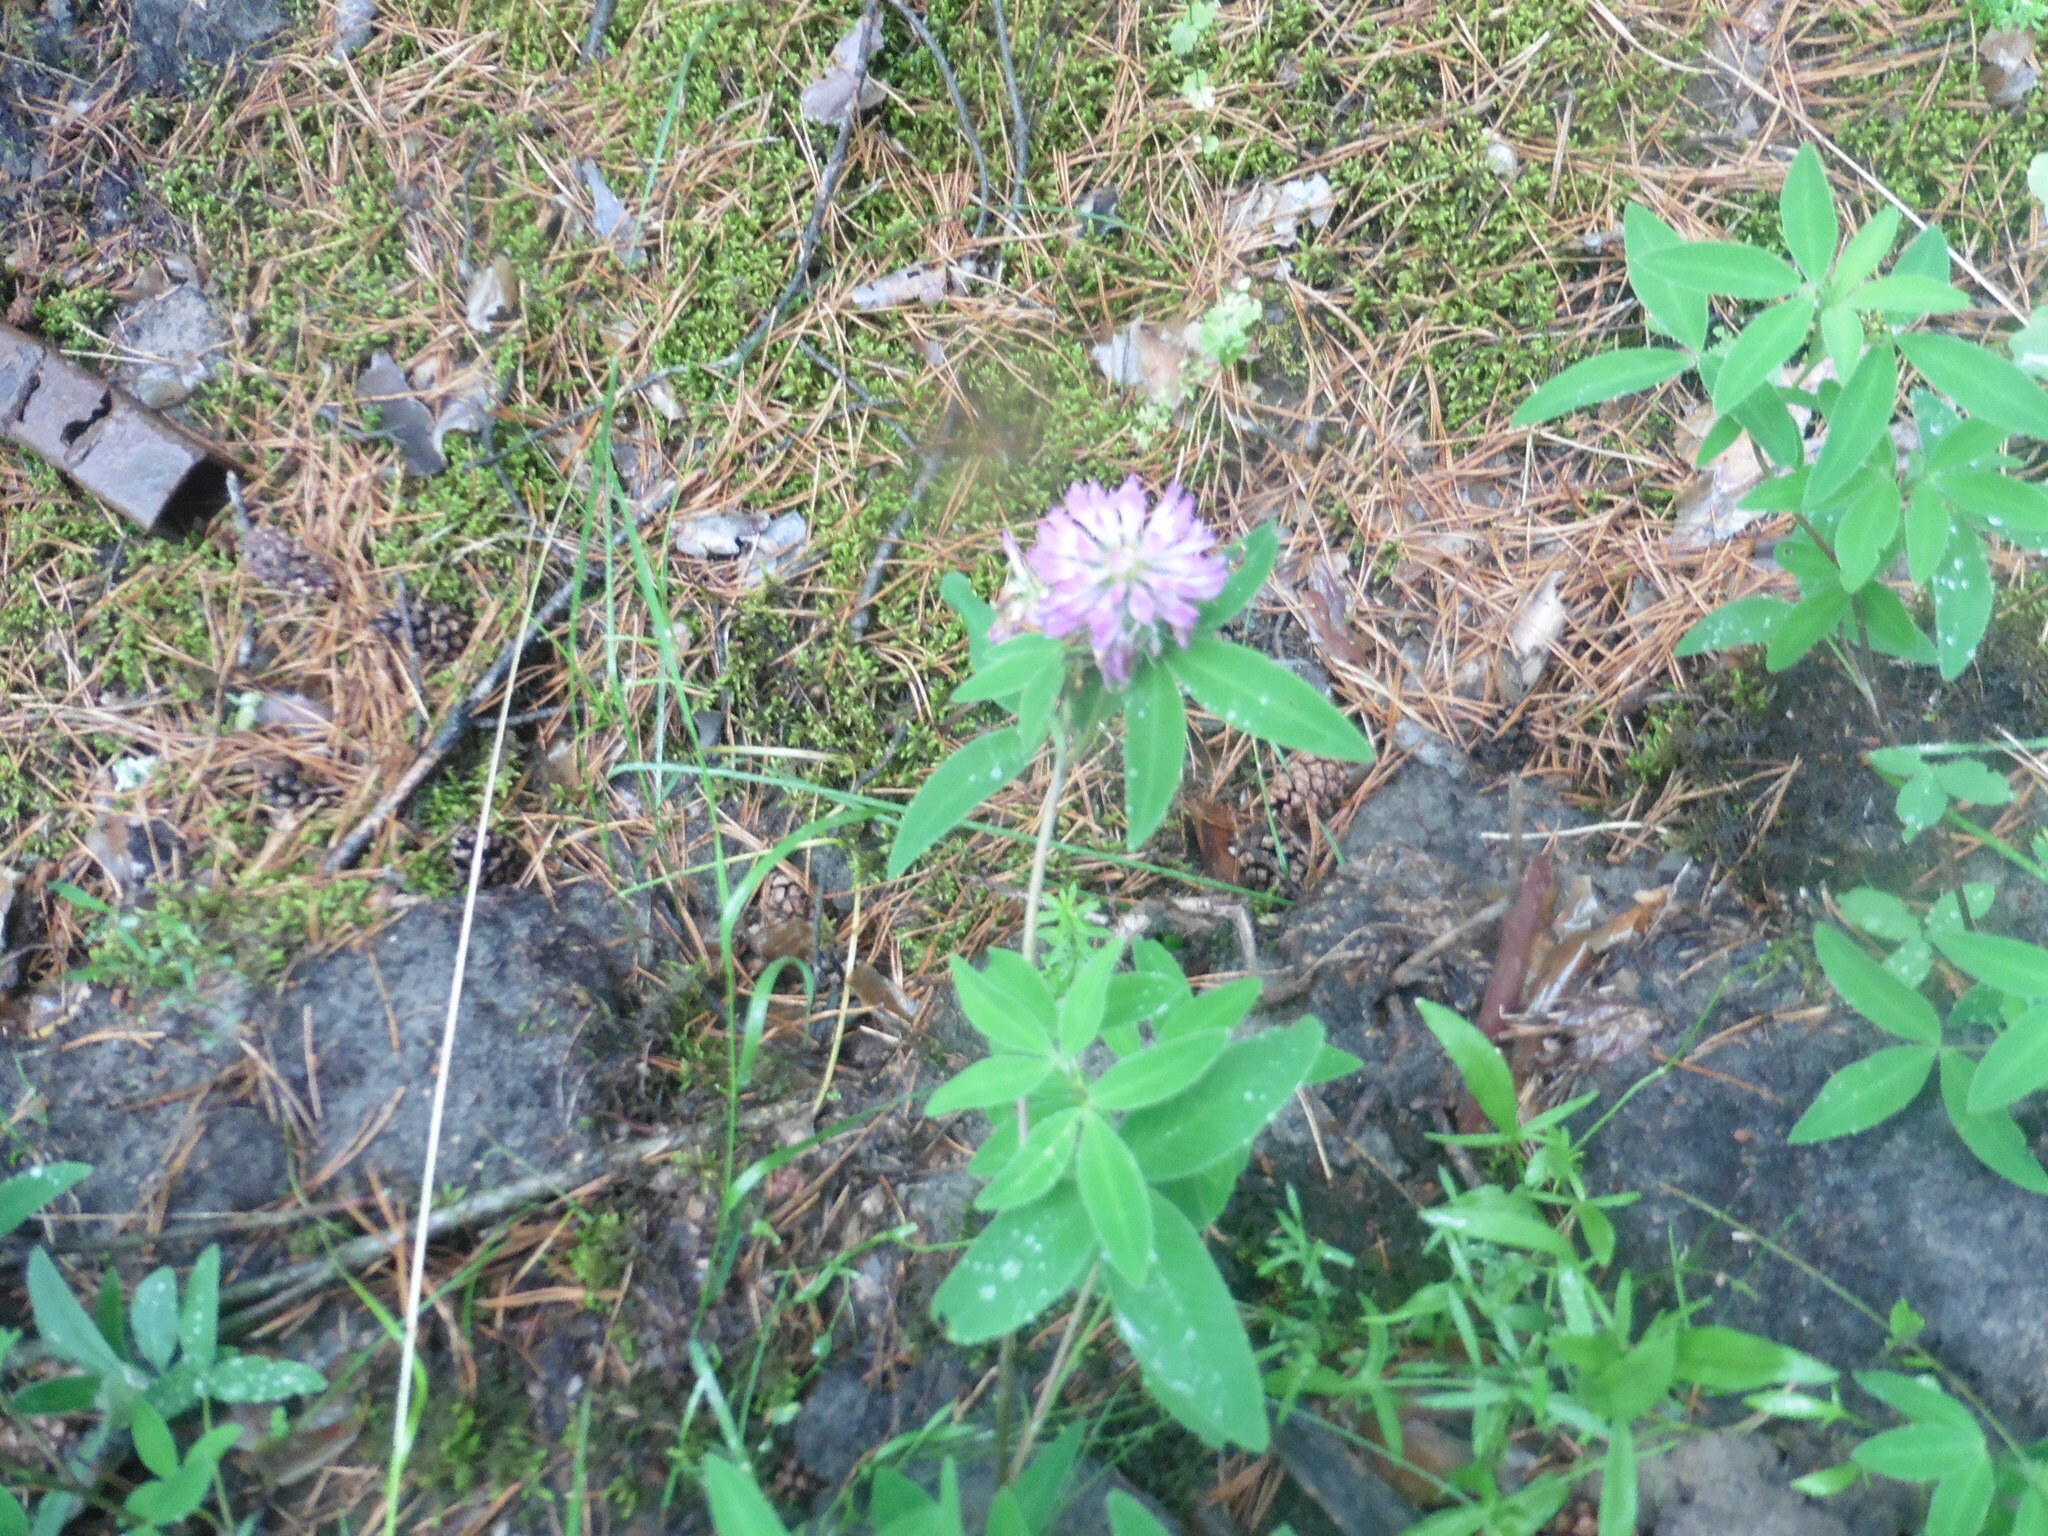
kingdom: Plantae
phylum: Tracheophyta
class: Magnoliopsida
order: Fabales
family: Fabaceae
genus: Trifolium
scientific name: Trifolium medium
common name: Zigzag clover
